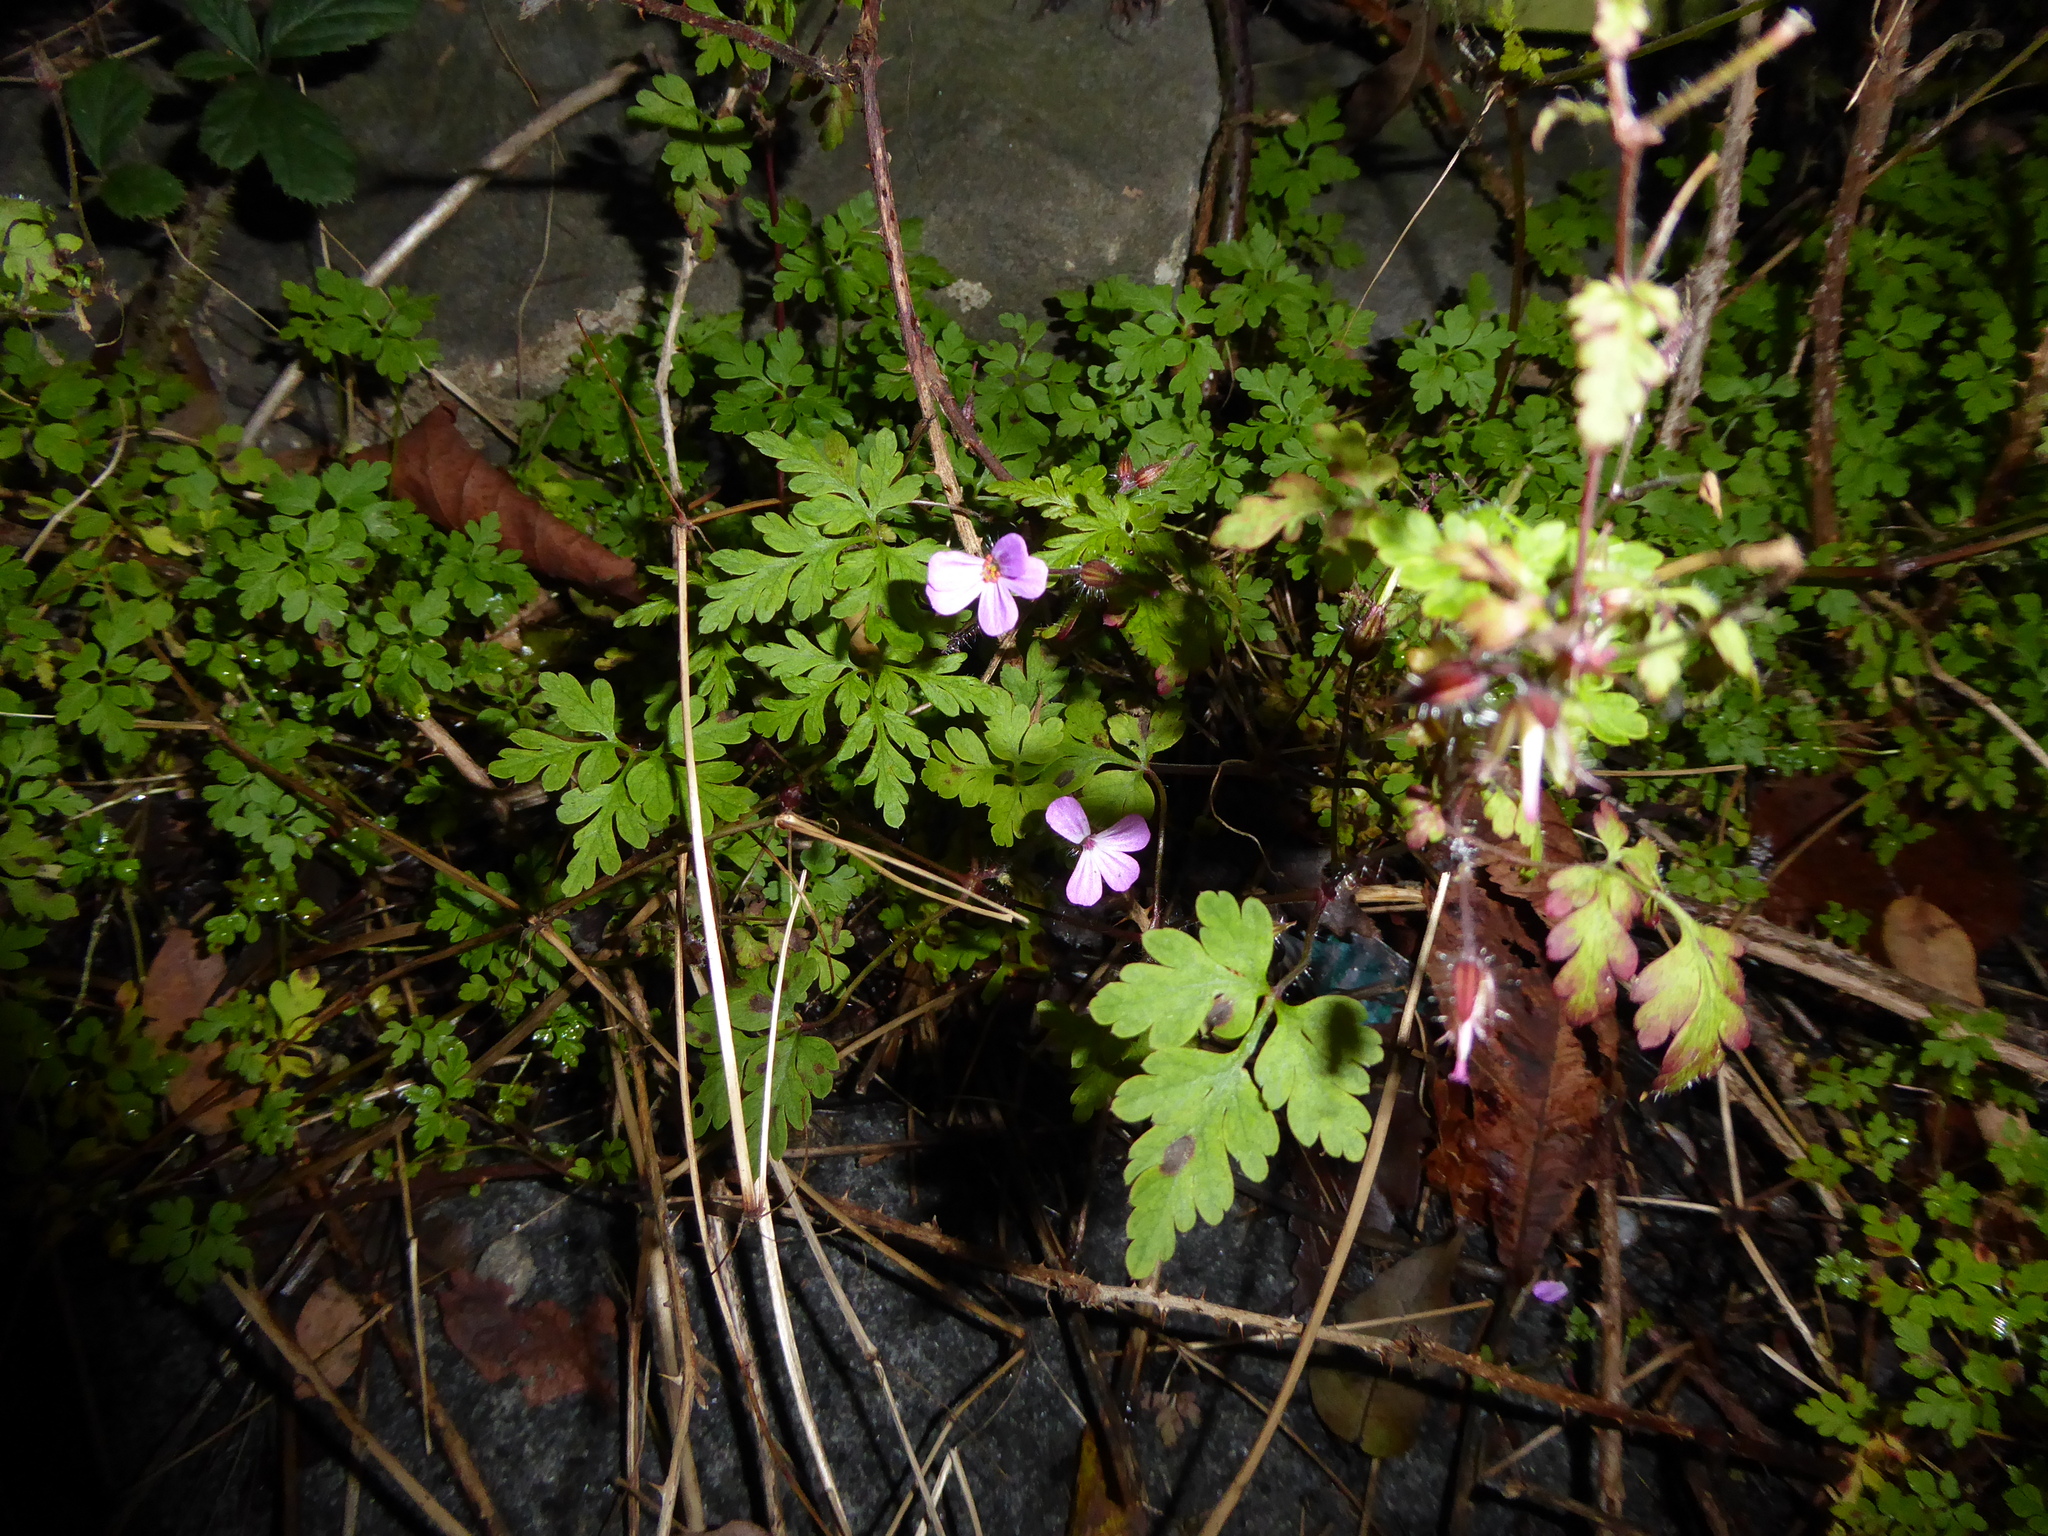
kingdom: Plantae
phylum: Tracheophyta
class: Magnoliopsida
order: Geraniales
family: Geraniaceae
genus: Geranium
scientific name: Geranium robertianum
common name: Herb-robert
